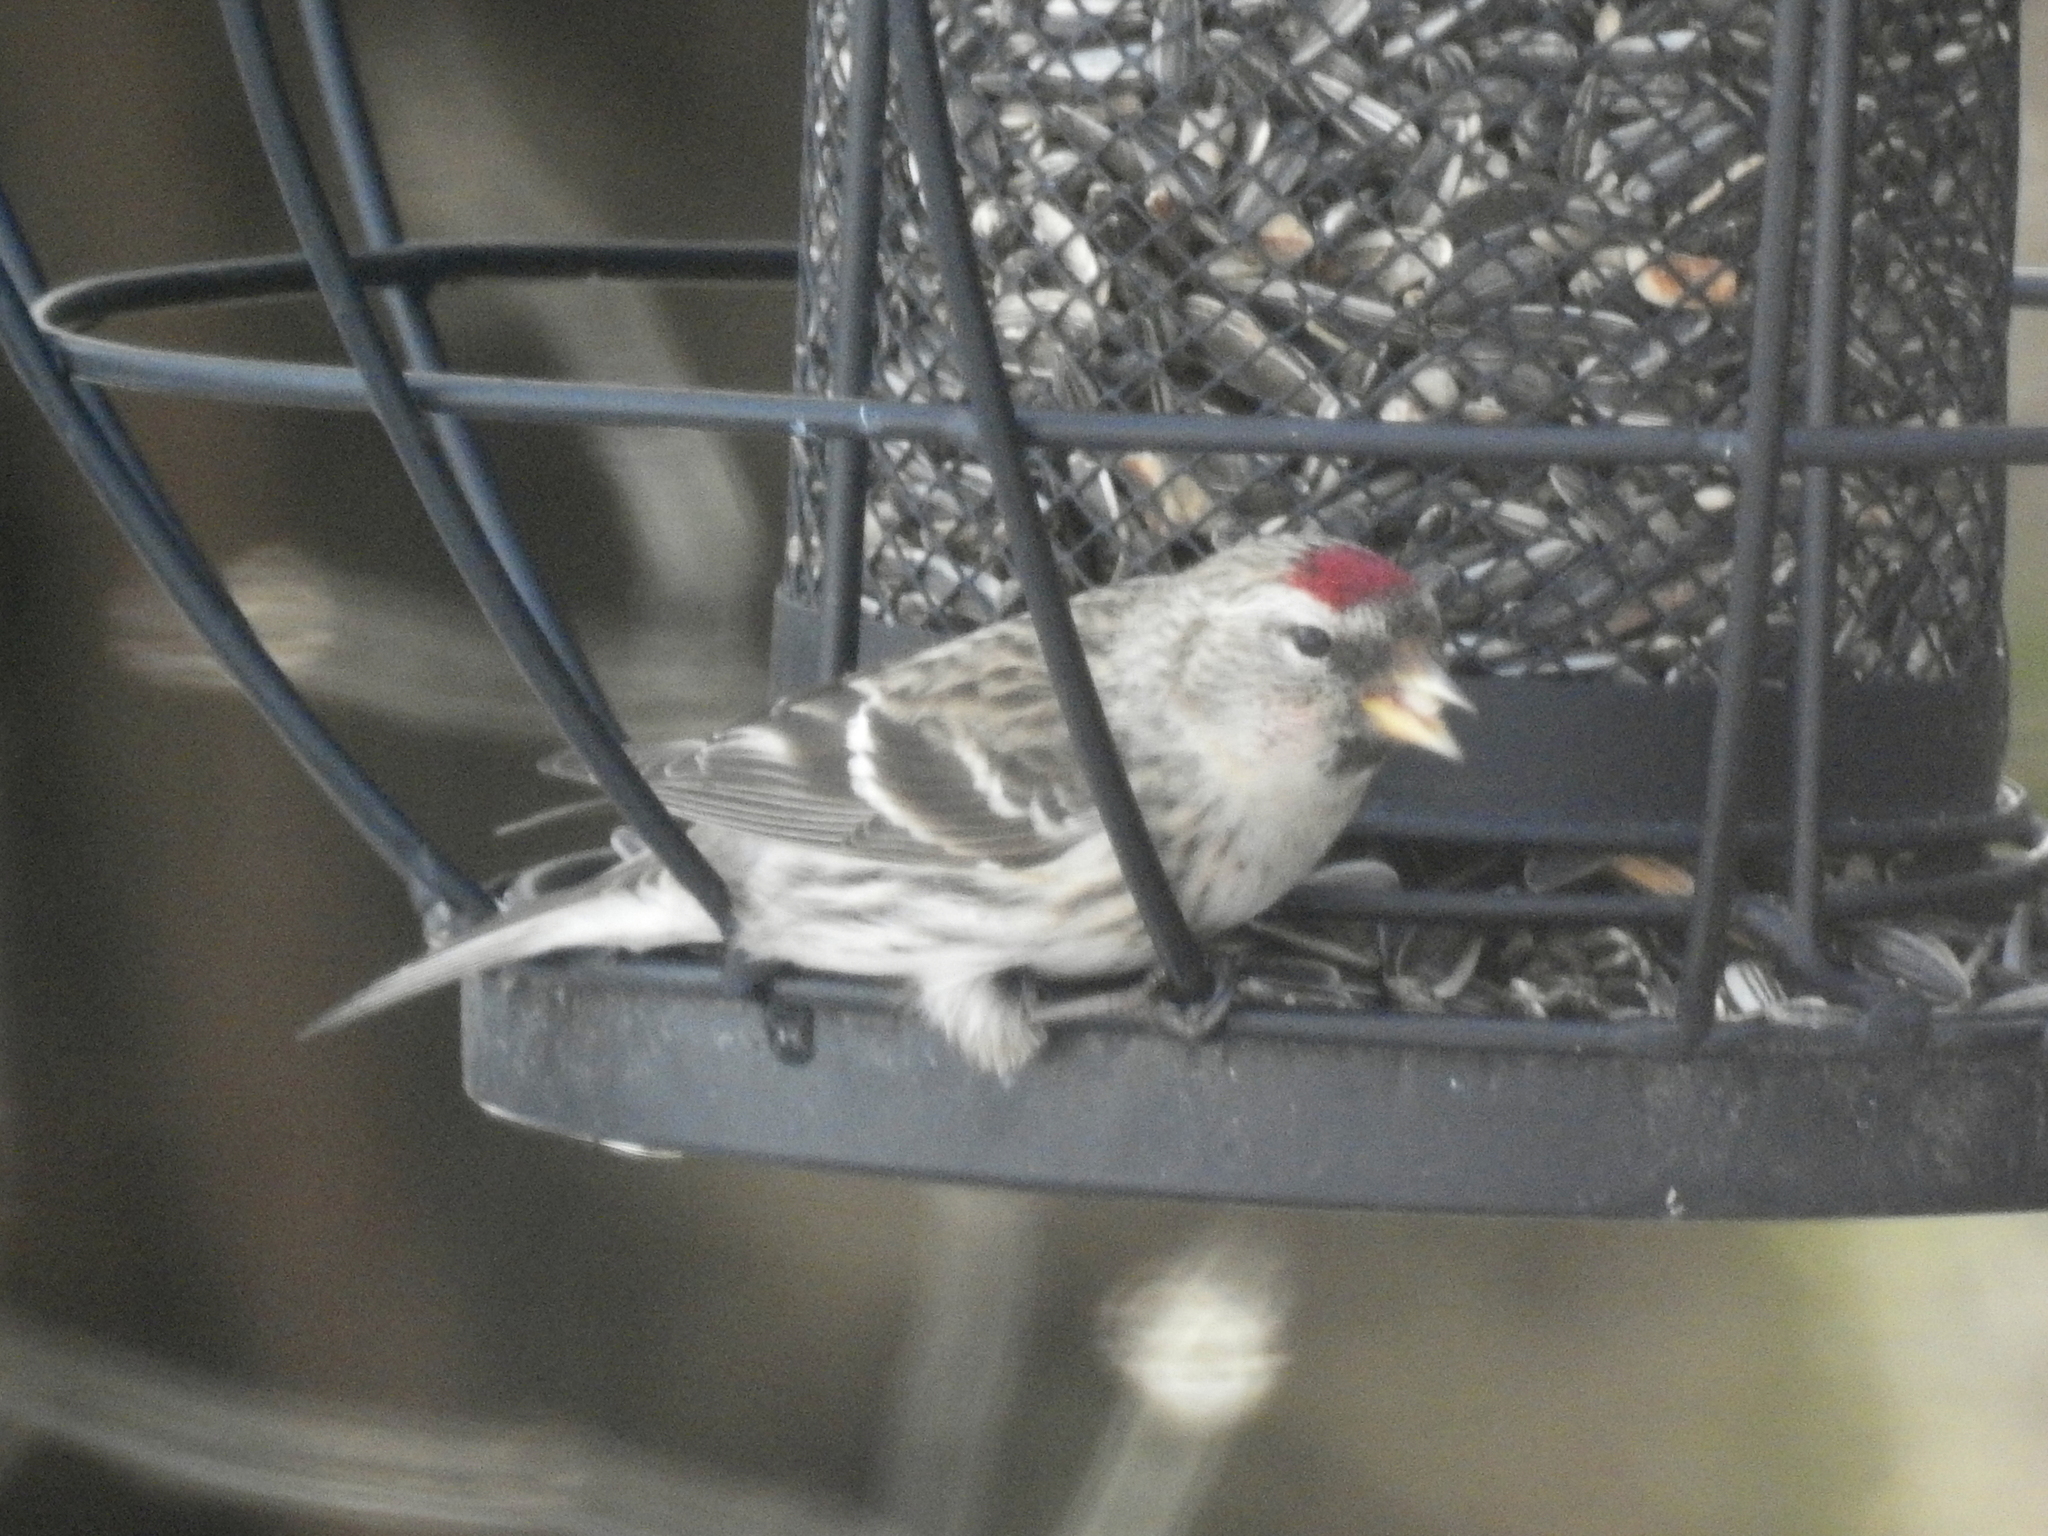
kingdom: Animalia
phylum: Chordata
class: Aves
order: Passeriformes
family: Fringillidae
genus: Acanthis
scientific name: Acanthis flammea
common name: Common redpoll
